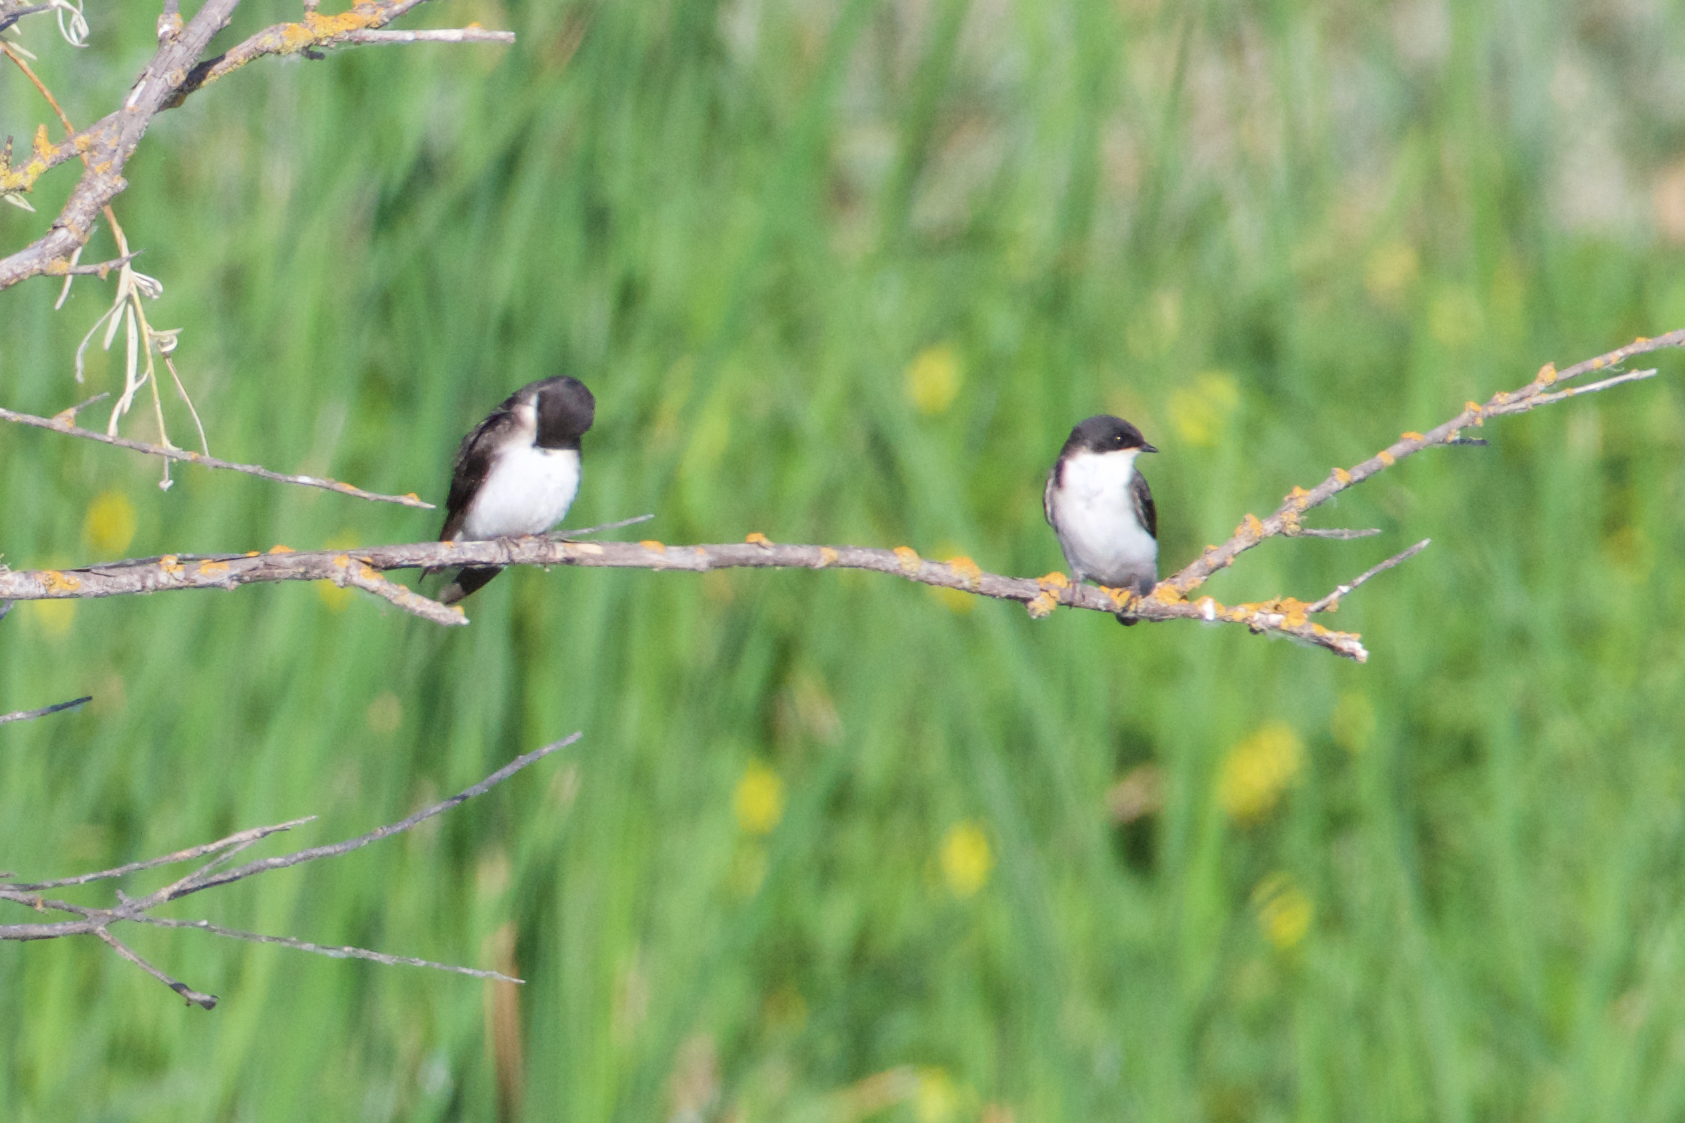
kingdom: Animalia
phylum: Chordata
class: Aves
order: Passeriformes
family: Hirundinidae
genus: Tachycineta
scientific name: Tachycineta bicolor
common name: Tree swallow
